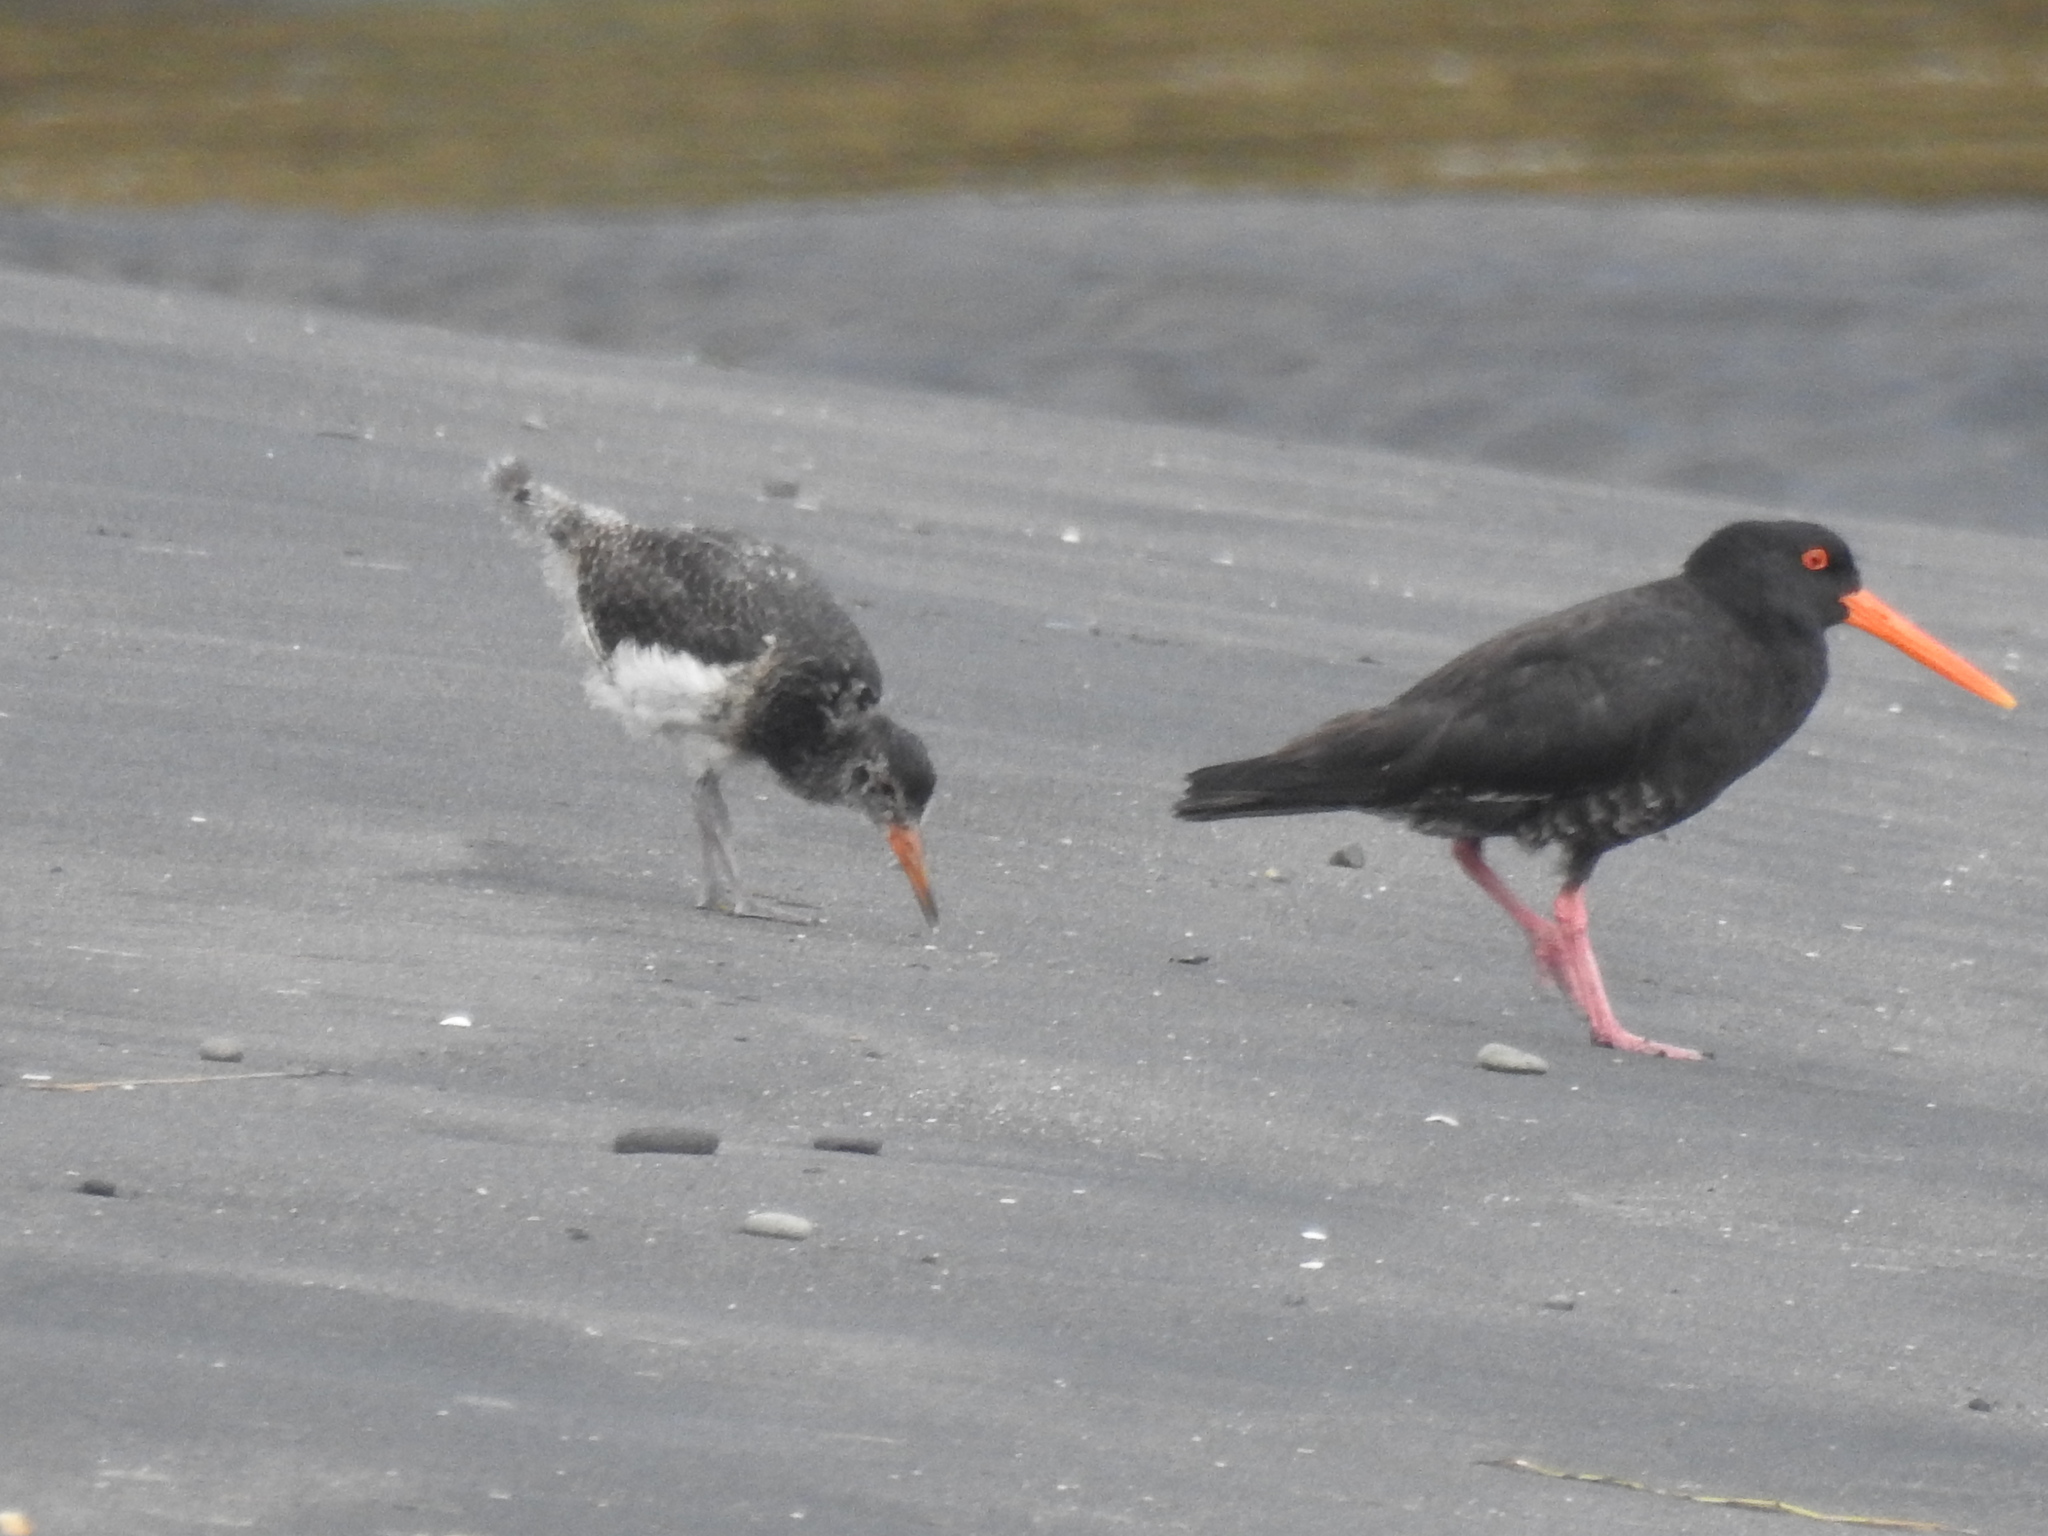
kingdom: Animalia
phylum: Chordata
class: Aves
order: Charadriiformes
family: Haematopodidae
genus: Haematopus
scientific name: Haematopus unicolor
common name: Variable oystercatcher
